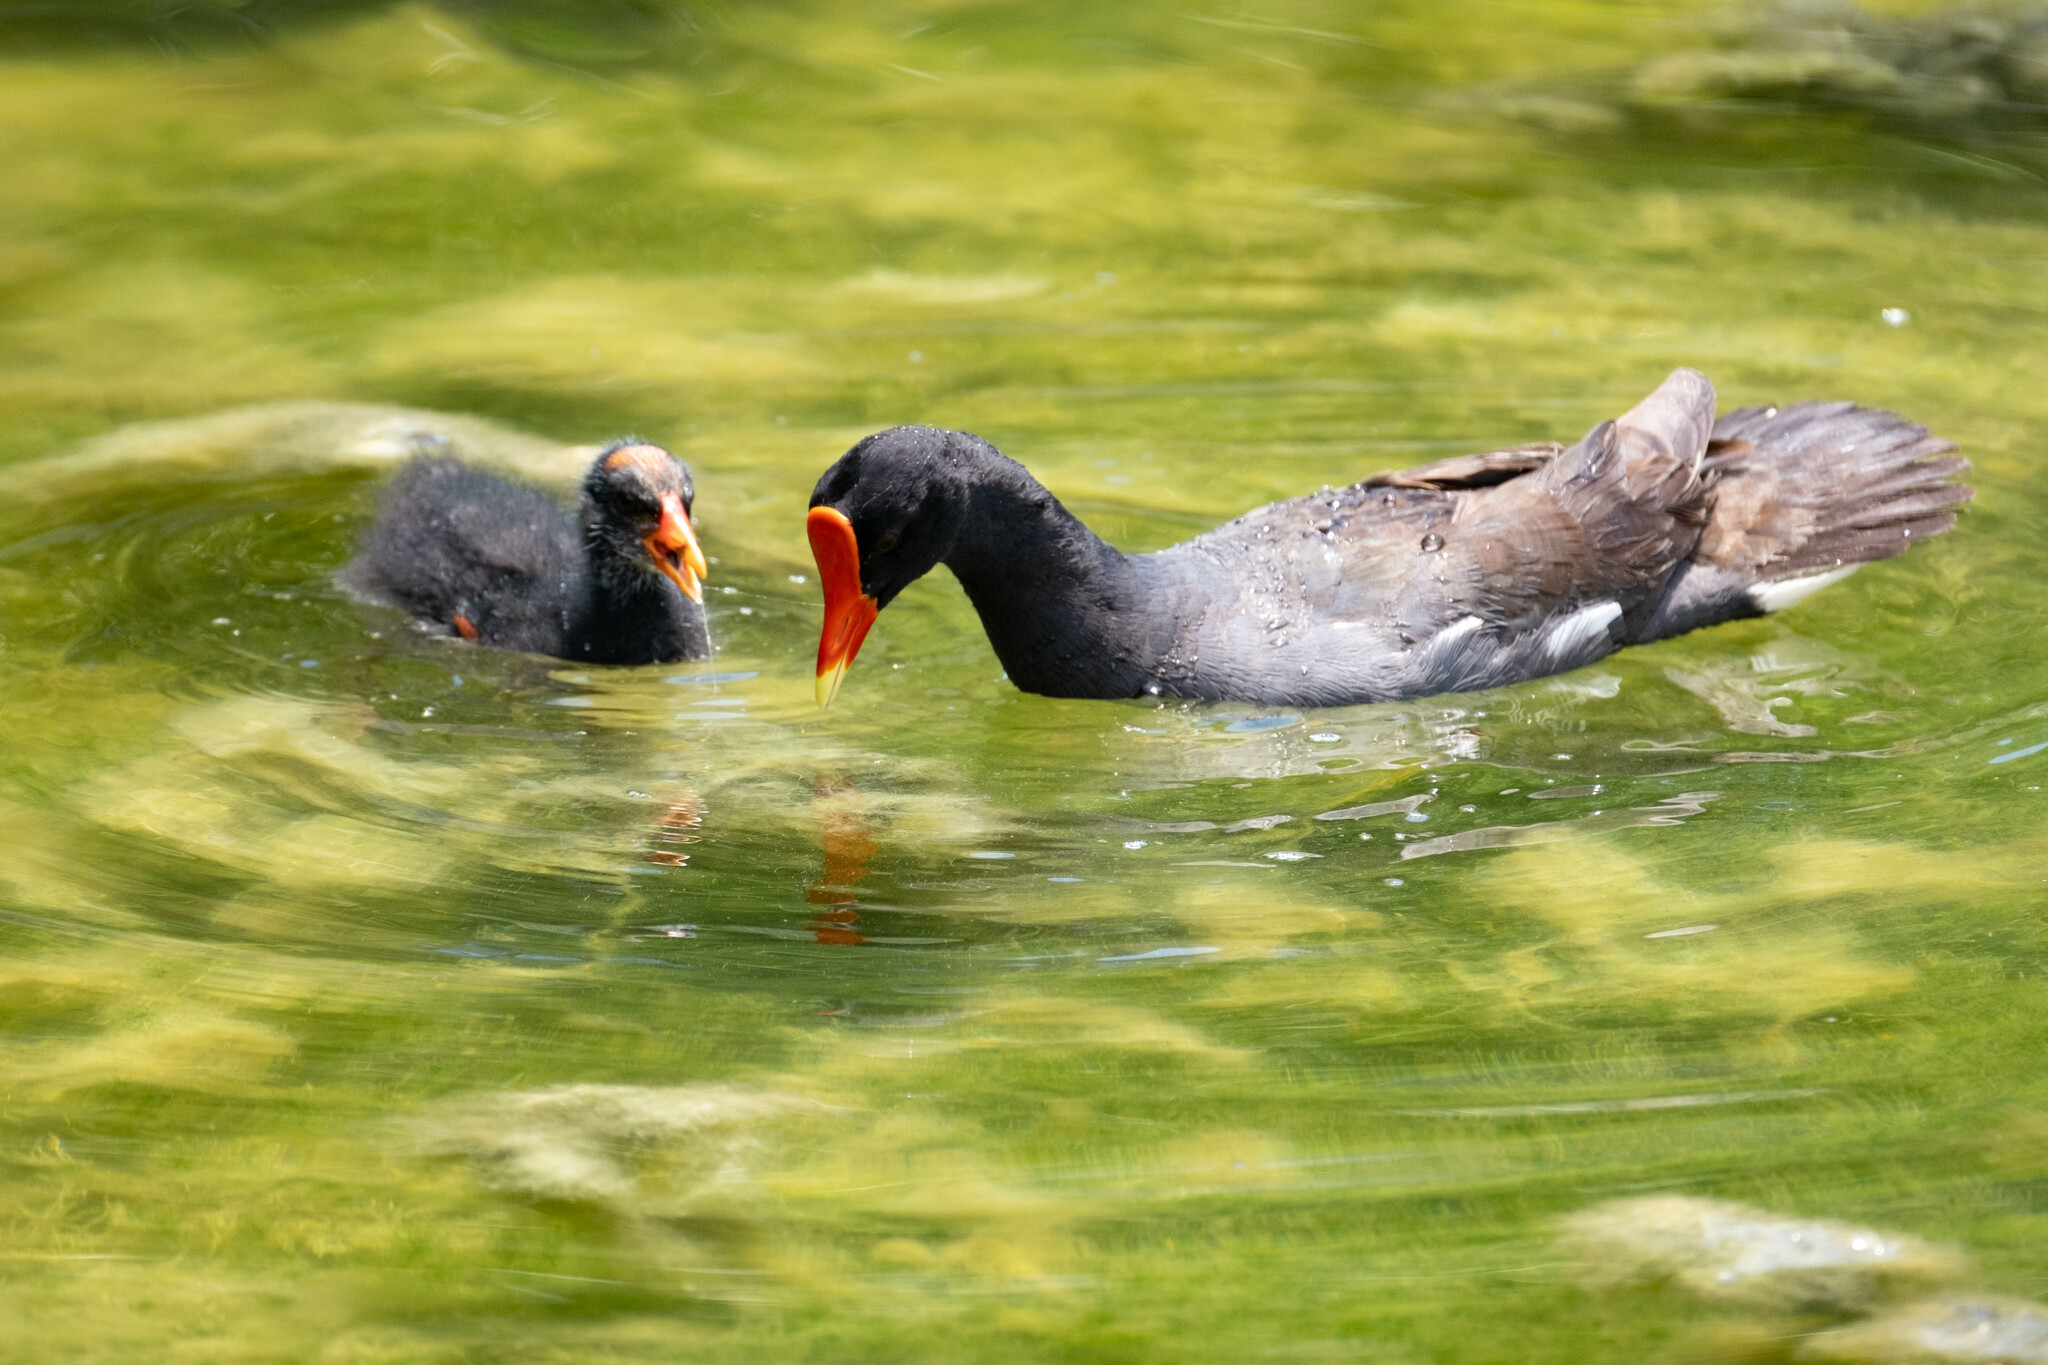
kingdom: Animalia
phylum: Chordata
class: Aves
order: Gruiformes
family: Rallidae
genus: Gallinula
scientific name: Gallinula chloropus
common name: Common moorhen
